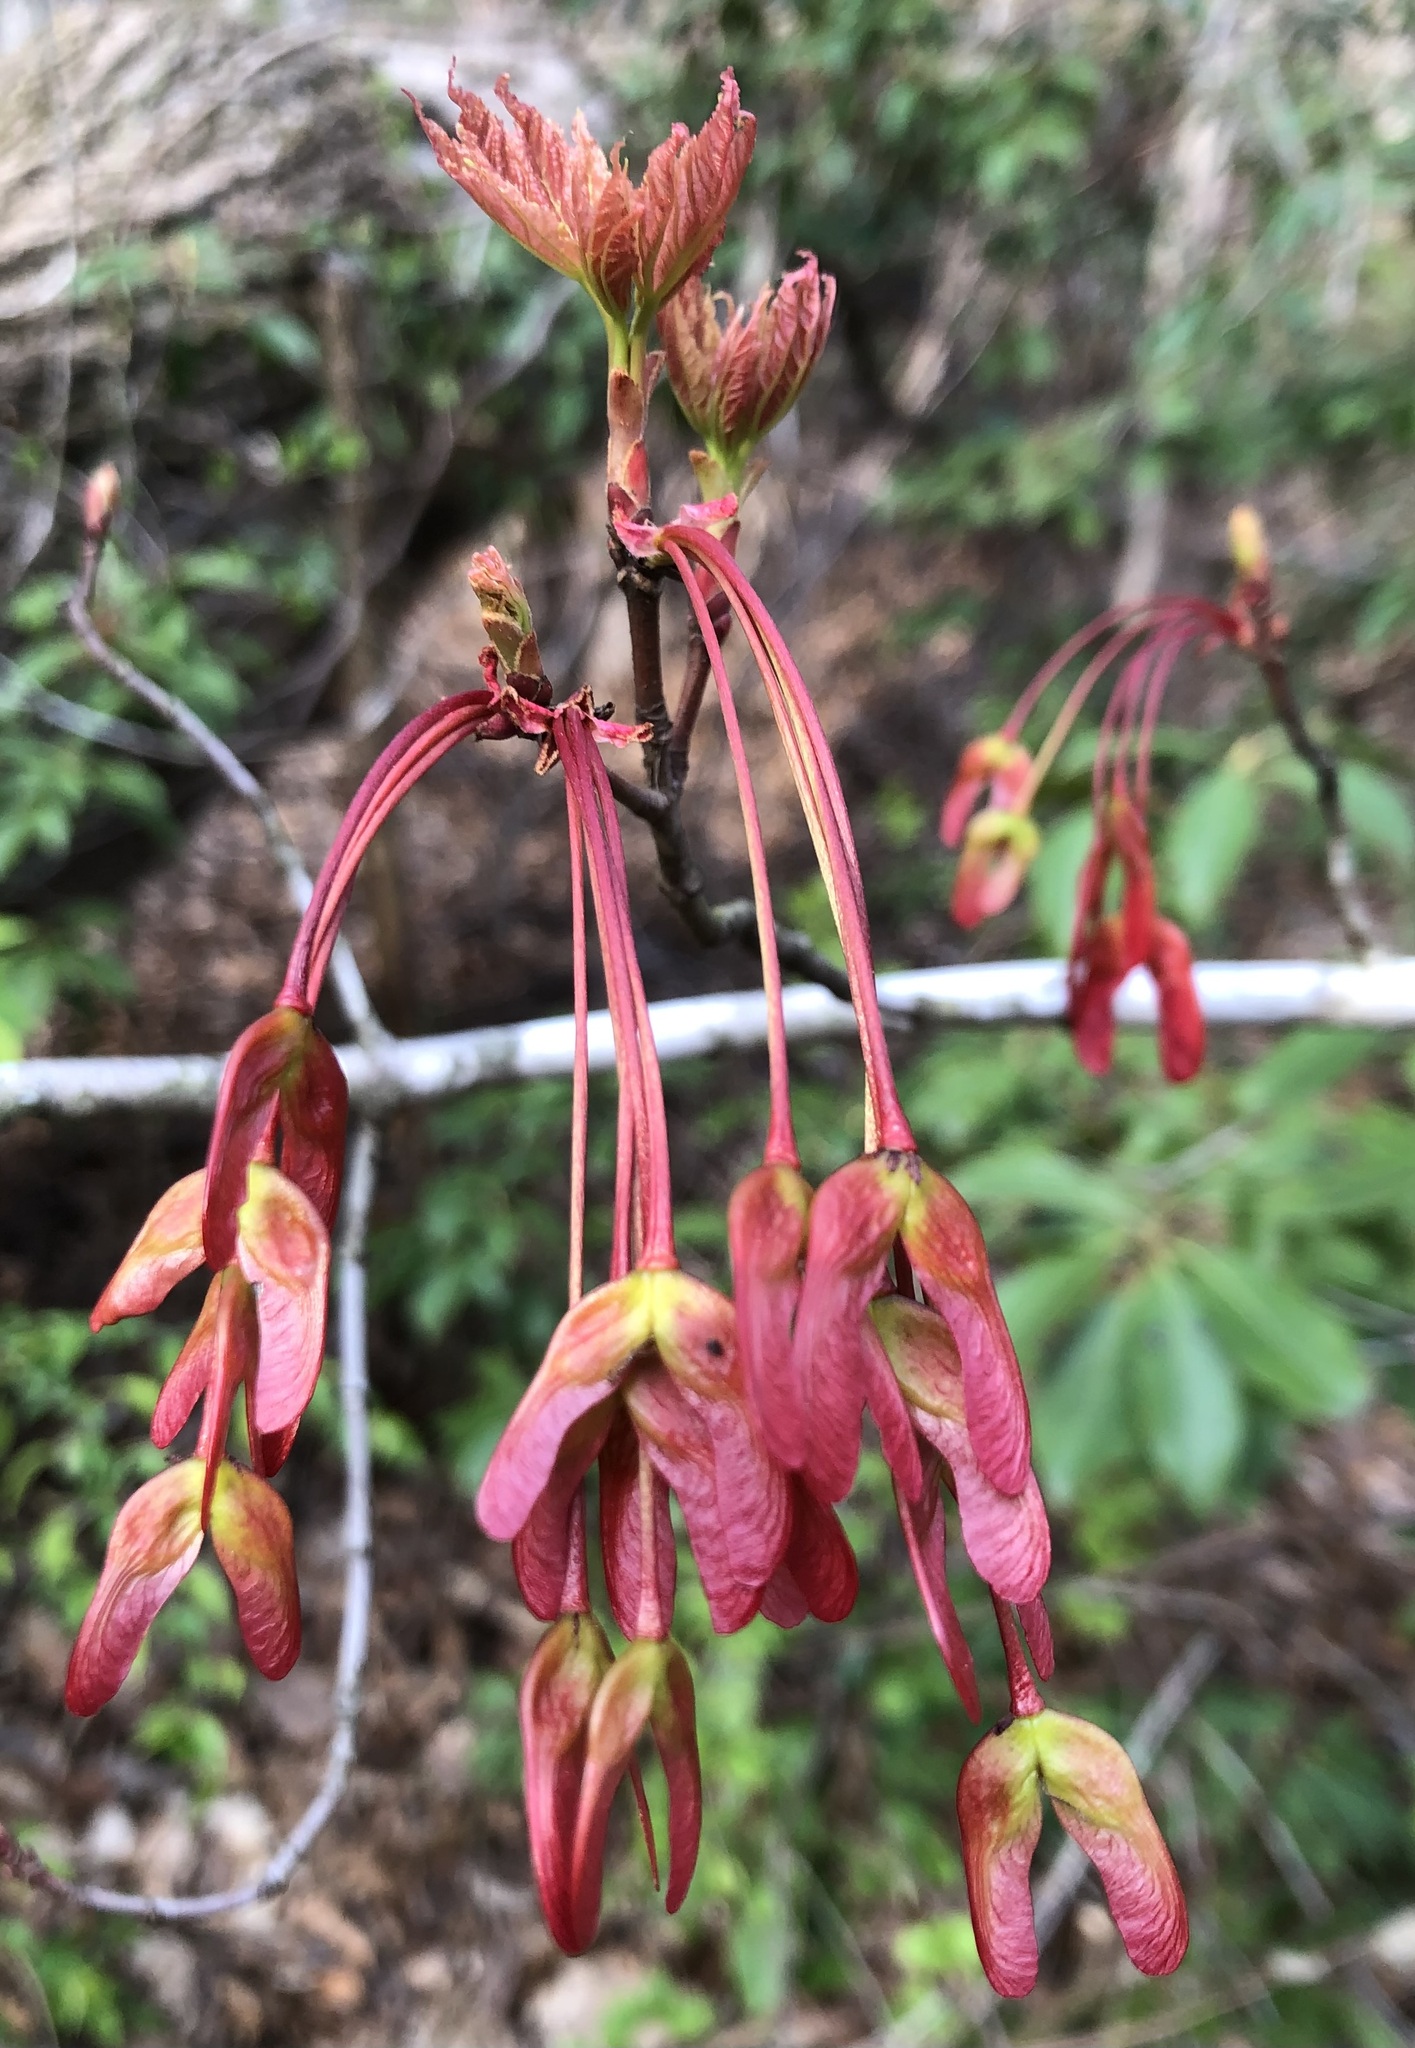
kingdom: Plantae
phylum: Tracheophyta
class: Magnoliopsida
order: Sapindales
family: Sapindaceae
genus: Acer
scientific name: Acer rubrum
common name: Red maple
